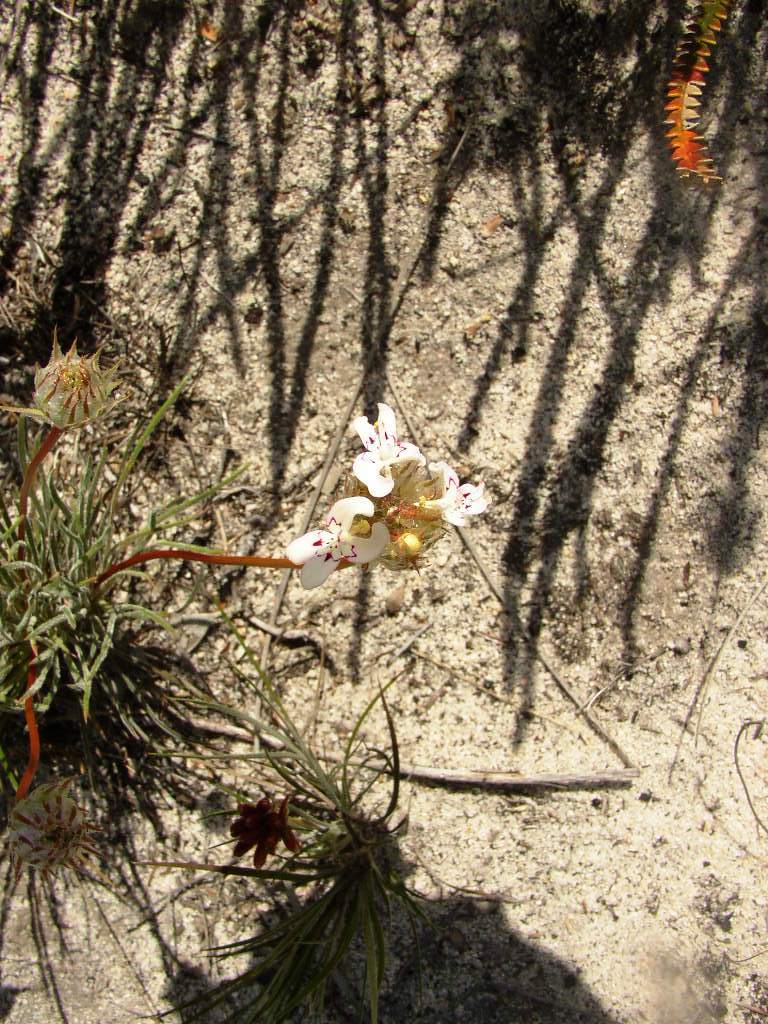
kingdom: Plantae
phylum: Tracheophyta
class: Magnoliopsida
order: Asterales
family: Stylidiaceae
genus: Stylidium
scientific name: Stylidium crossocephalum
